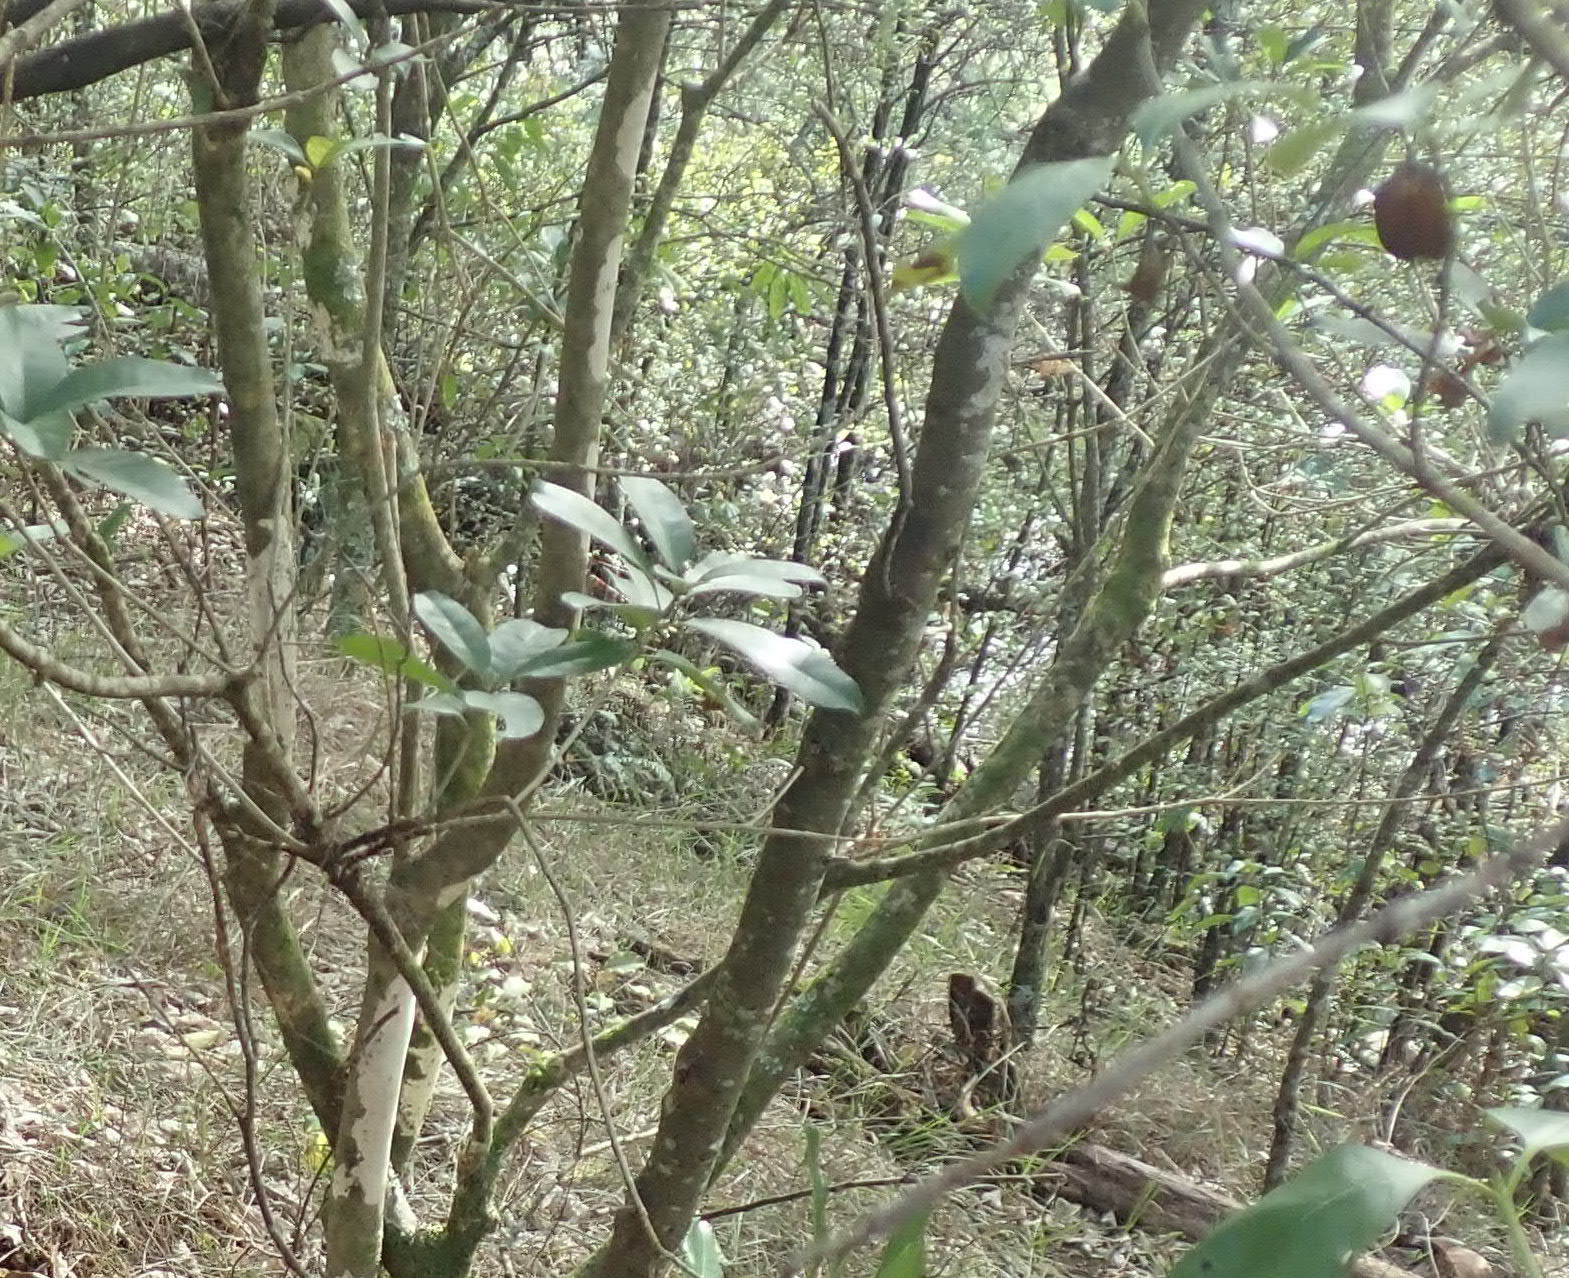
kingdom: Plantae
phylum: Tracheophyta
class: Magnoliopsida
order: Cucurbitales
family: Corynocarpaceae
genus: Corynocarpus
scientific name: Corynocarpus laevigatus
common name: New zealand laurel
